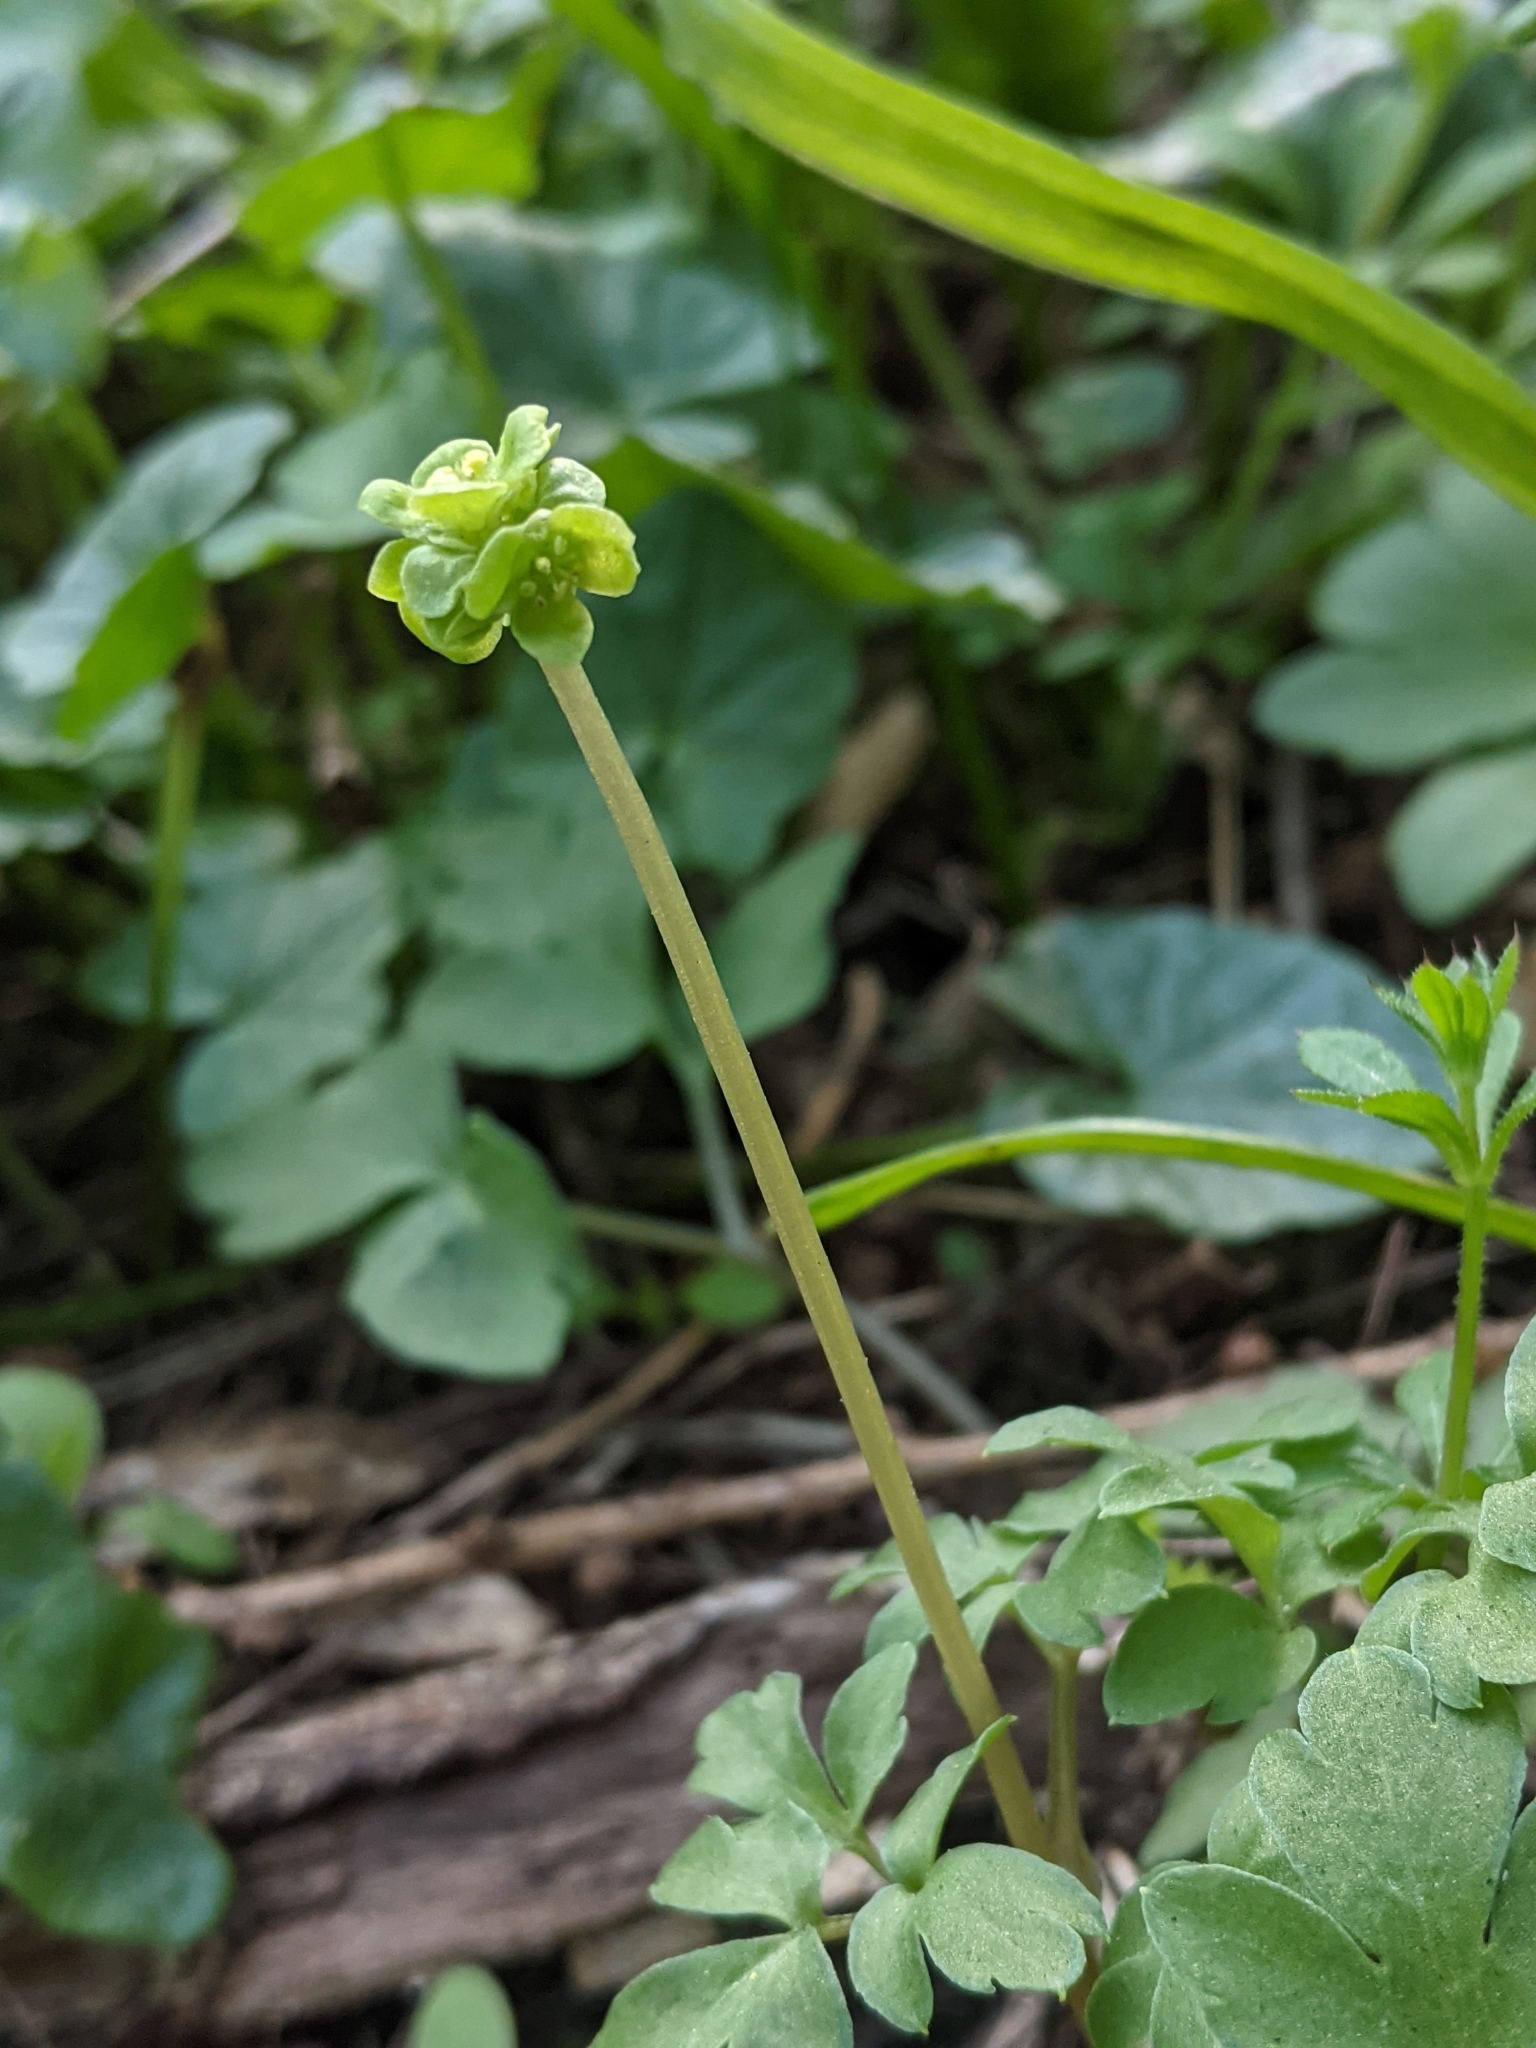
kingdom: Plantae
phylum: Tracheophyta
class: Magnoliopsida
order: Dipsacales
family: Viburnaceae
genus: Adoxa
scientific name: Adoxa moschatellina
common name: Moschatel
